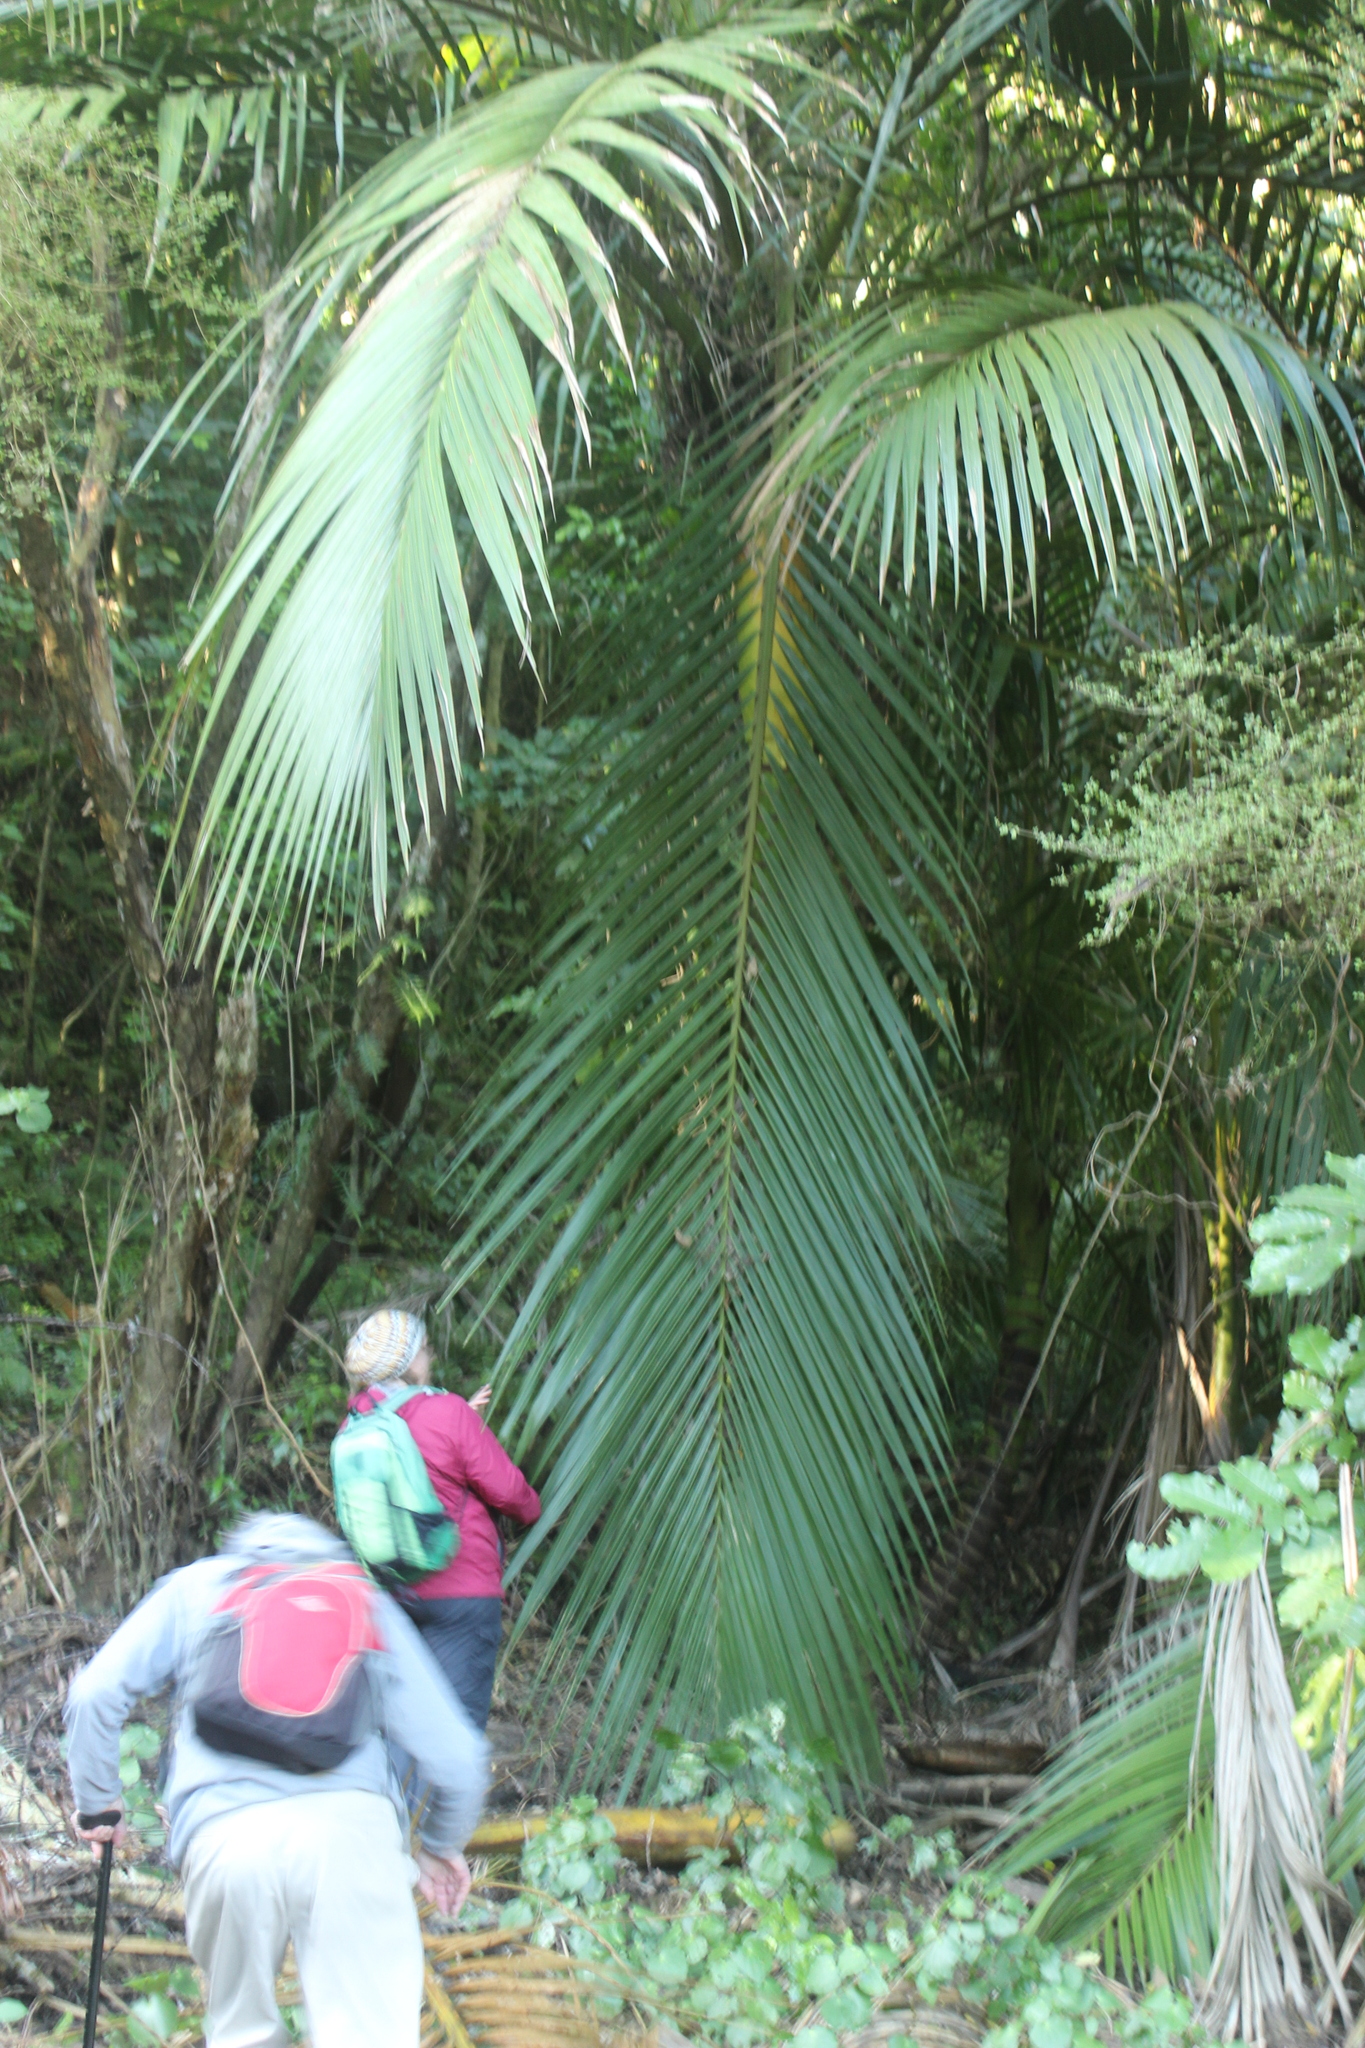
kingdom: Plantae
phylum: Tracheophyta
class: Liliopsida
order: Arecales
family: Arecaceae
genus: Rhopalostylis
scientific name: Rhopalostylis sapida
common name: Feather-duster palm
